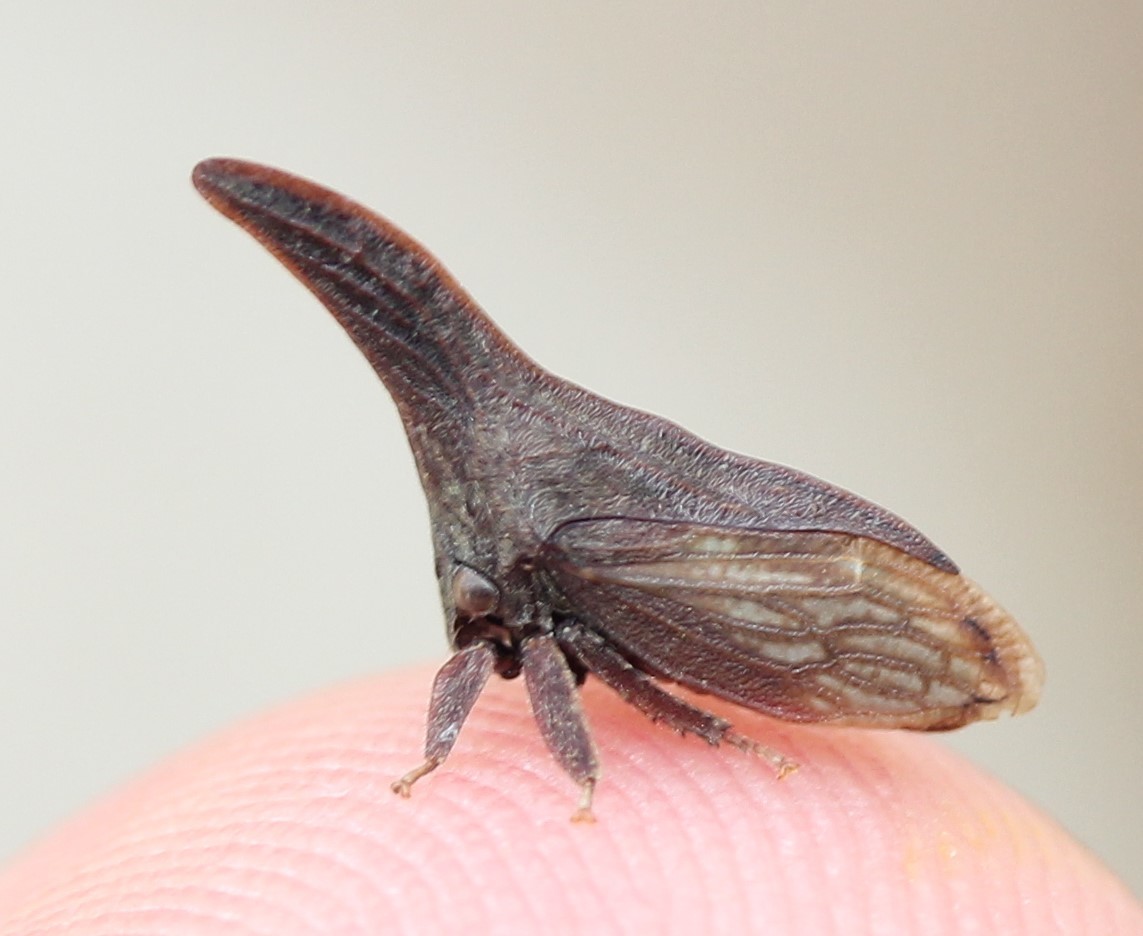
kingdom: Animalia
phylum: Arthropoda
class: Insecta
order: Hemiptera
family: Membracidae
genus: Enchenopa
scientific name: Enchenopa latipes
